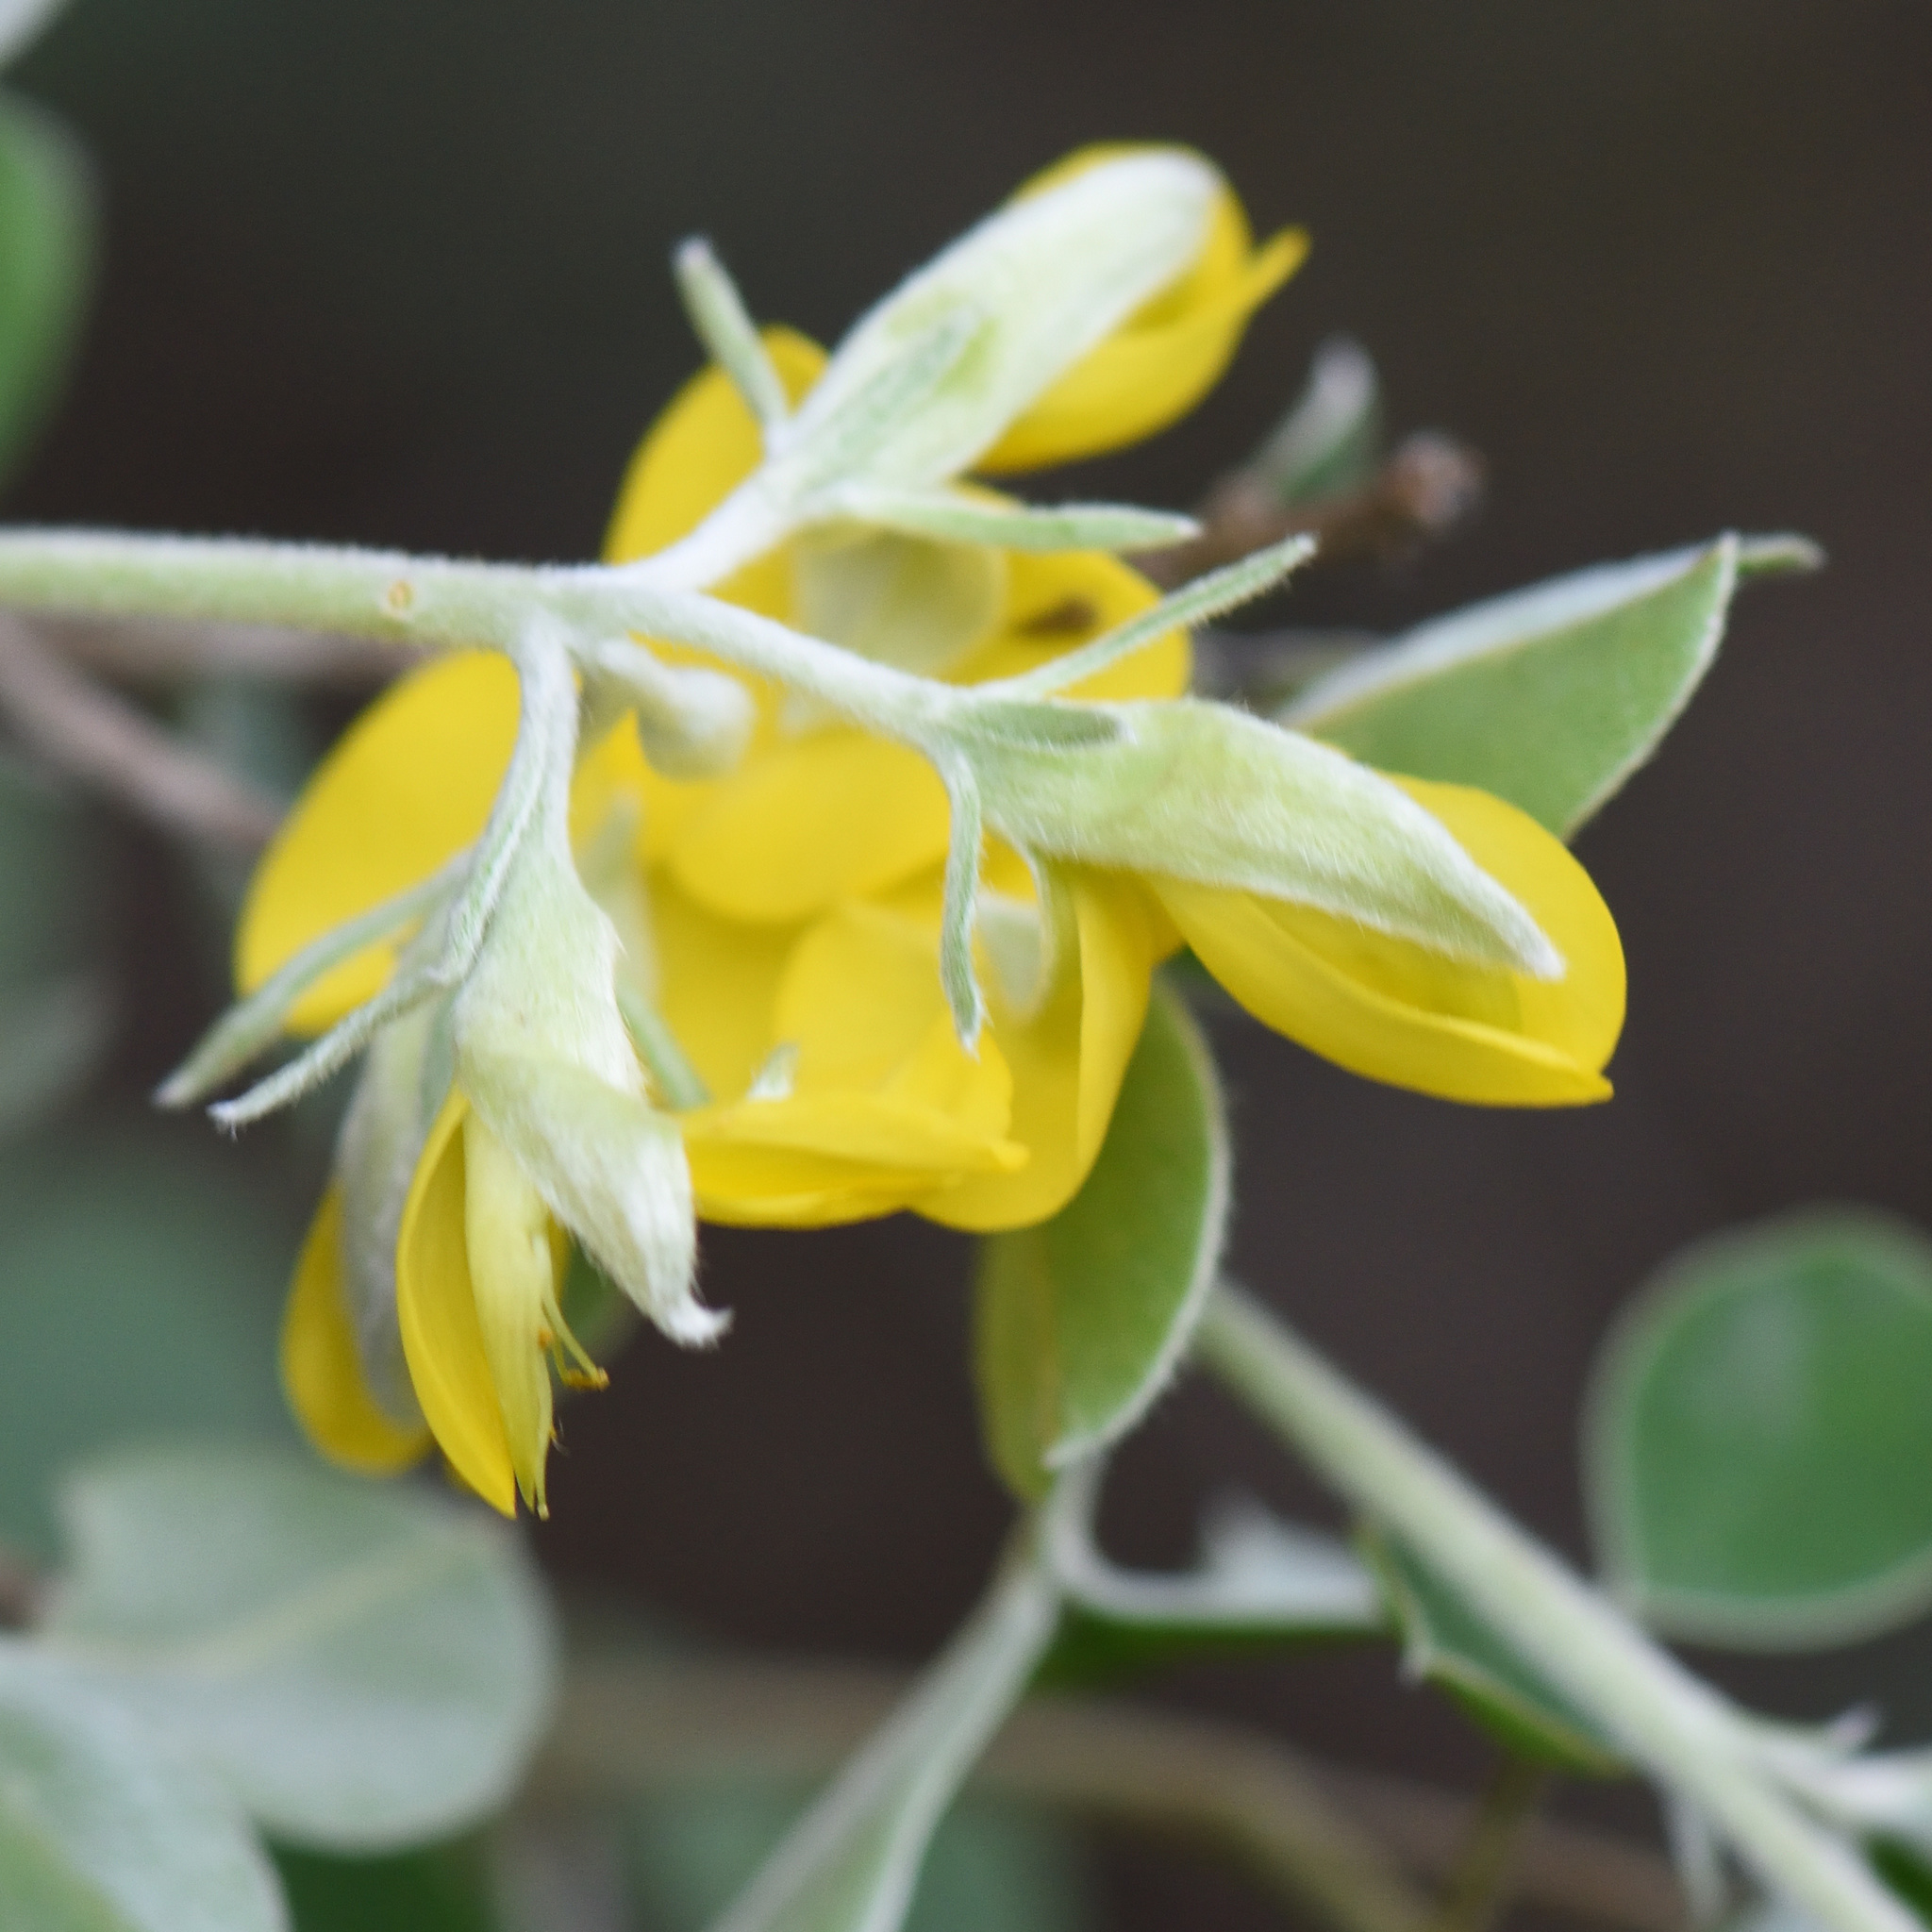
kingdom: Plantae
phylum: Tracheophyta
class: Magnoliopsida
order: Fabales
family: Fabaceae
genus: Argyrolobium
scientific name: Argyrolobium incanum
